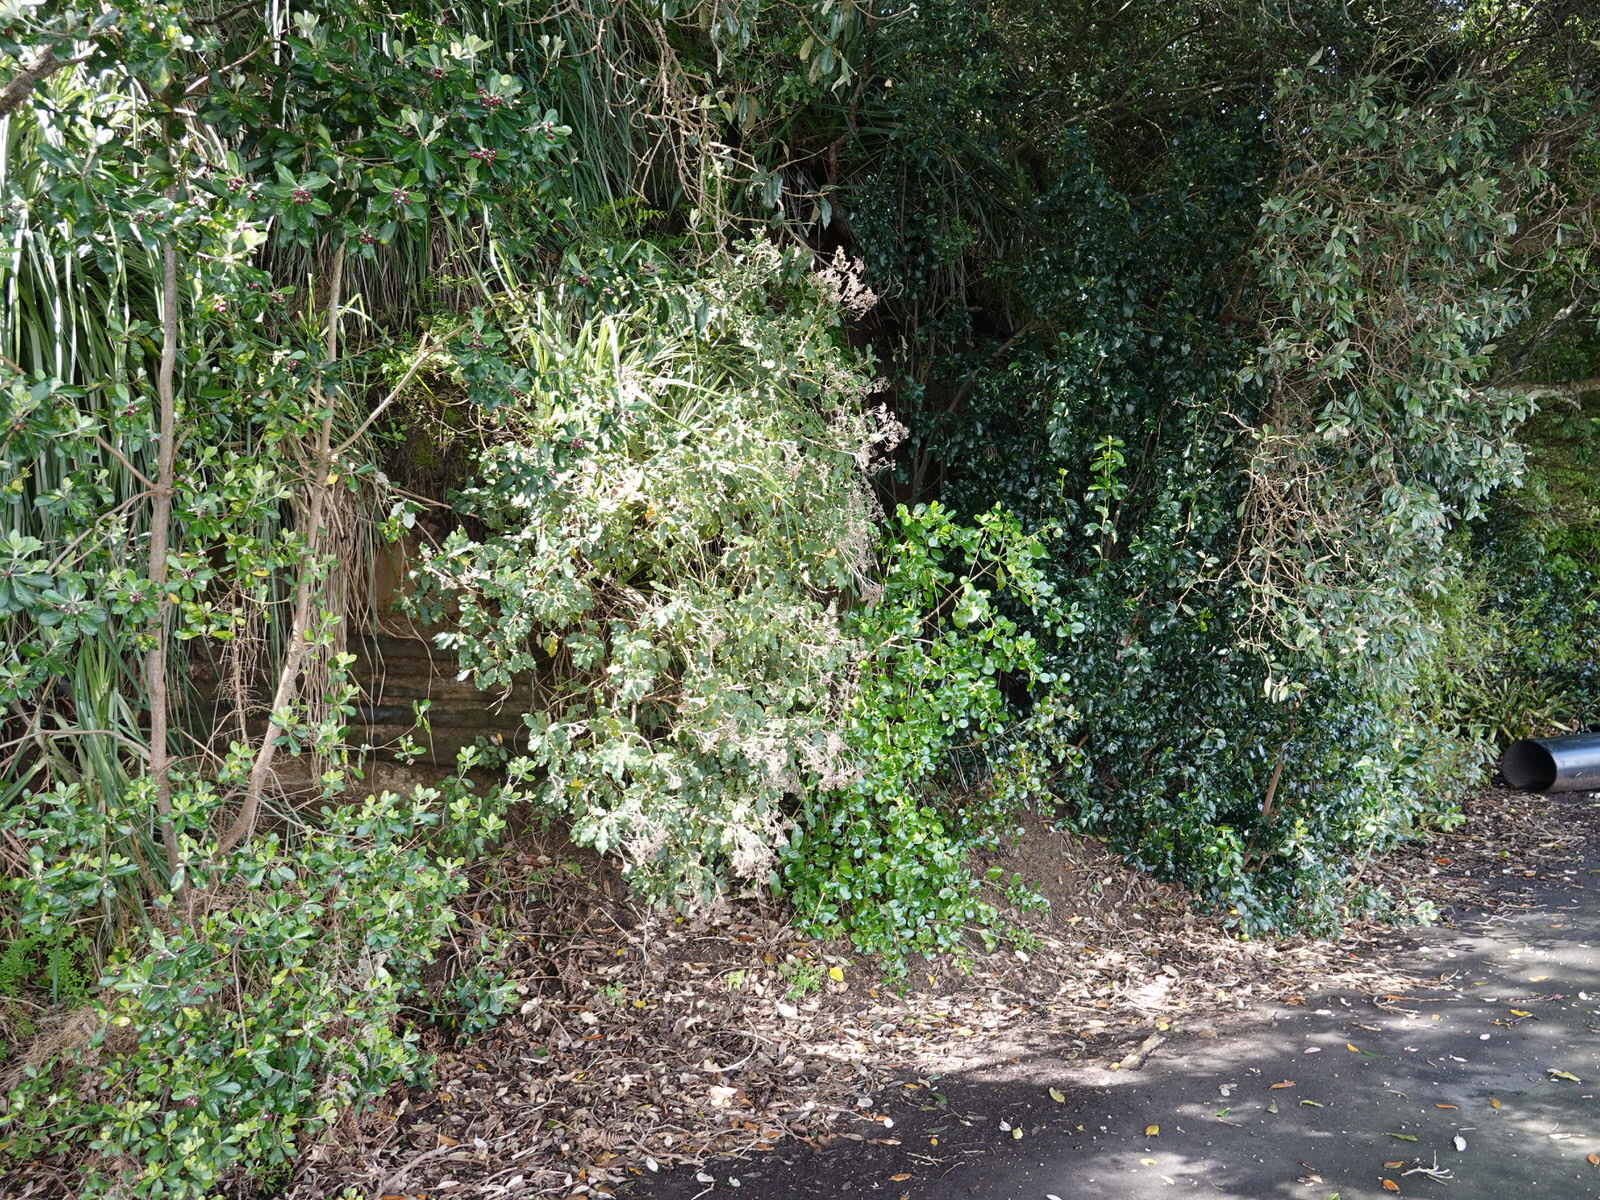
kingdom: Plantae
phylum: Tracheophyta
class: Magnoliopsida
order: Asterales
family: Asteraceae
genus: Olearia
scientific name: Olearia furfuracea
